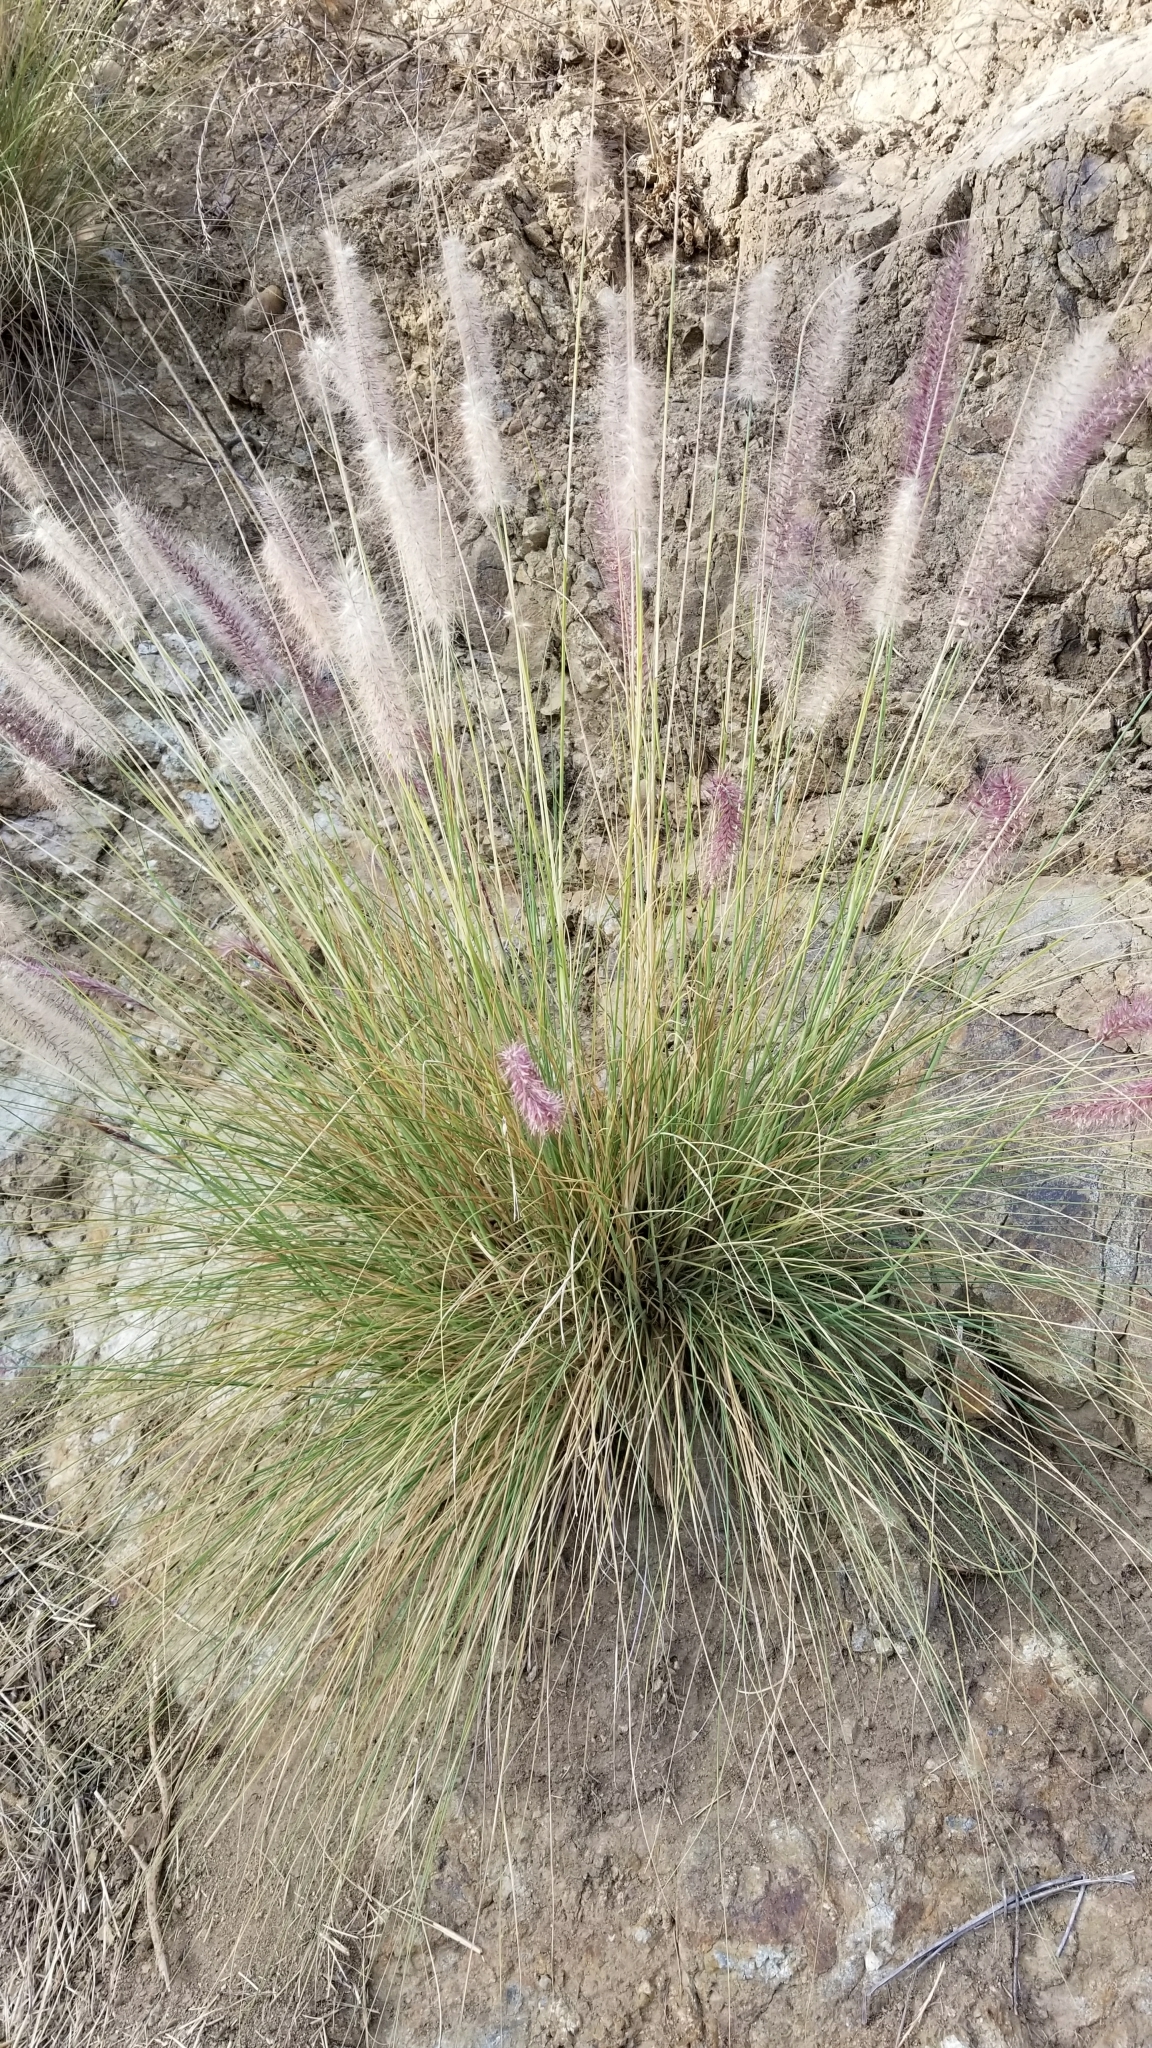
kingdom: Plantae
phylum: Tracheophyta
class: Liliopsida
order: Poales
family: Poaceae
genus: Cenchrus
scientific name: Cenchrus setaceus
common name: Crimson fountaingrass
